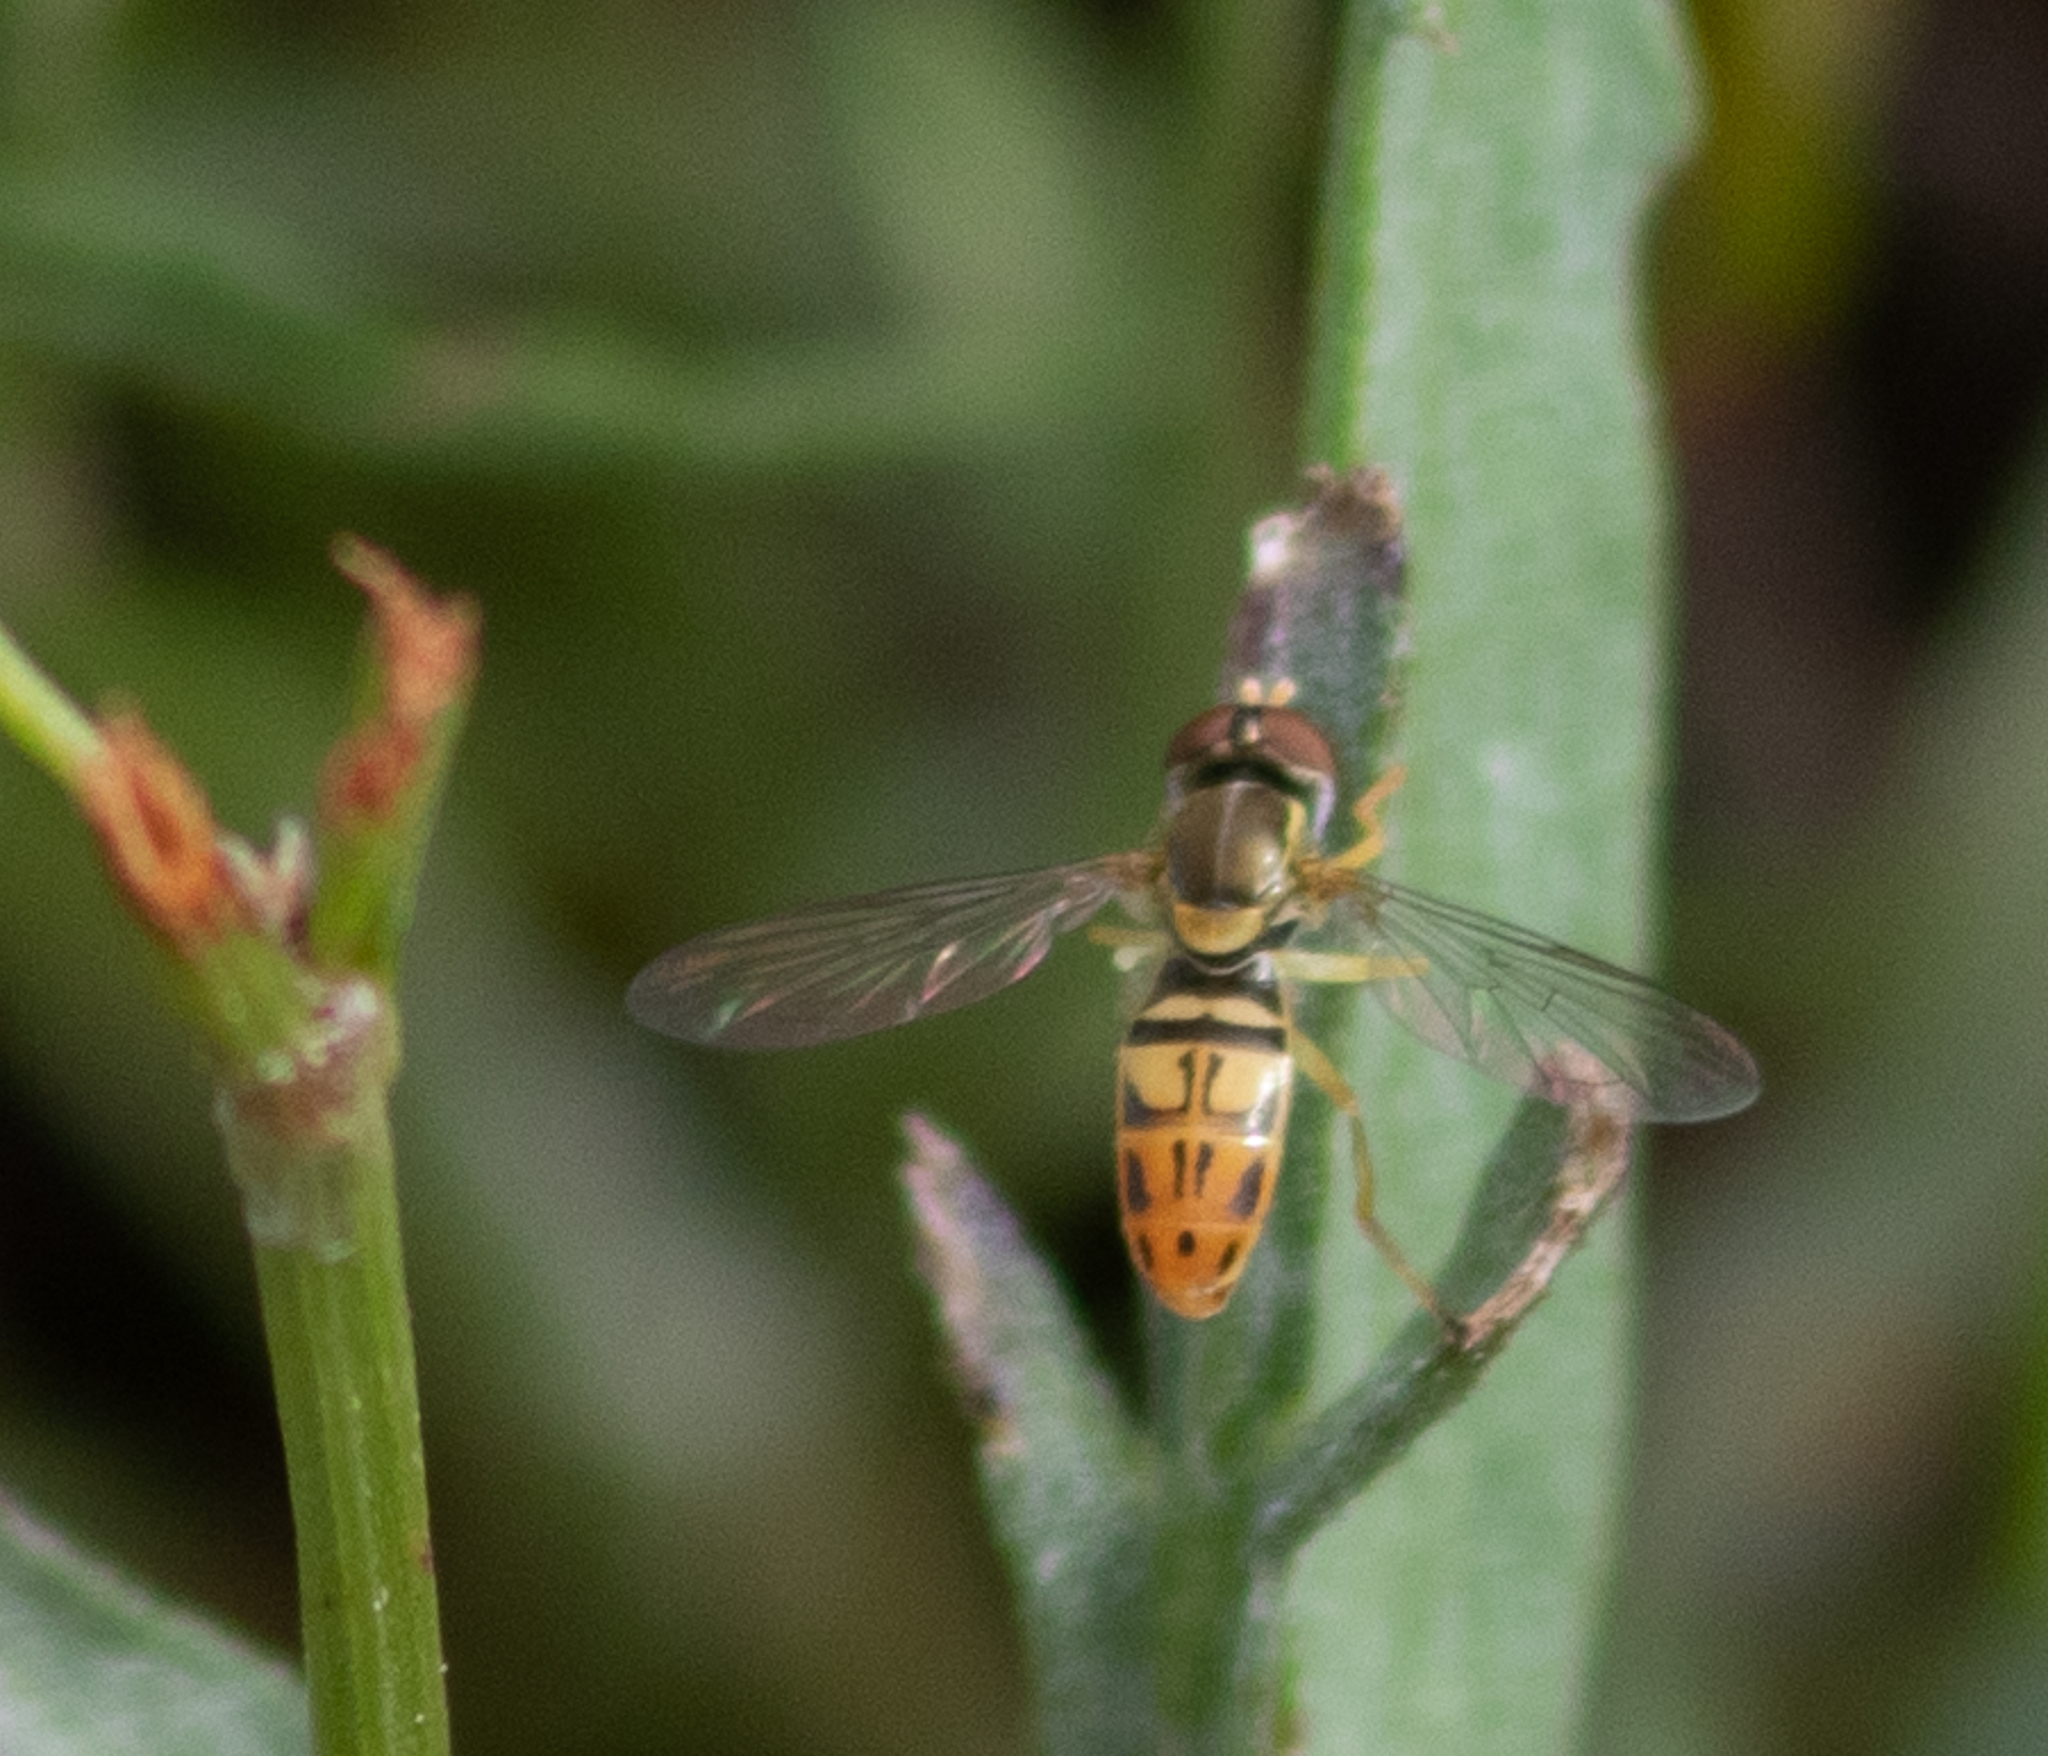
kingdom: Animalia
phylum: Arthropoda
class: Insecta
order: Diptera
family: Syrphidae
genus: Toxomerus
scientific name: Toxomerus marginatus
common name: Syrphid fly
